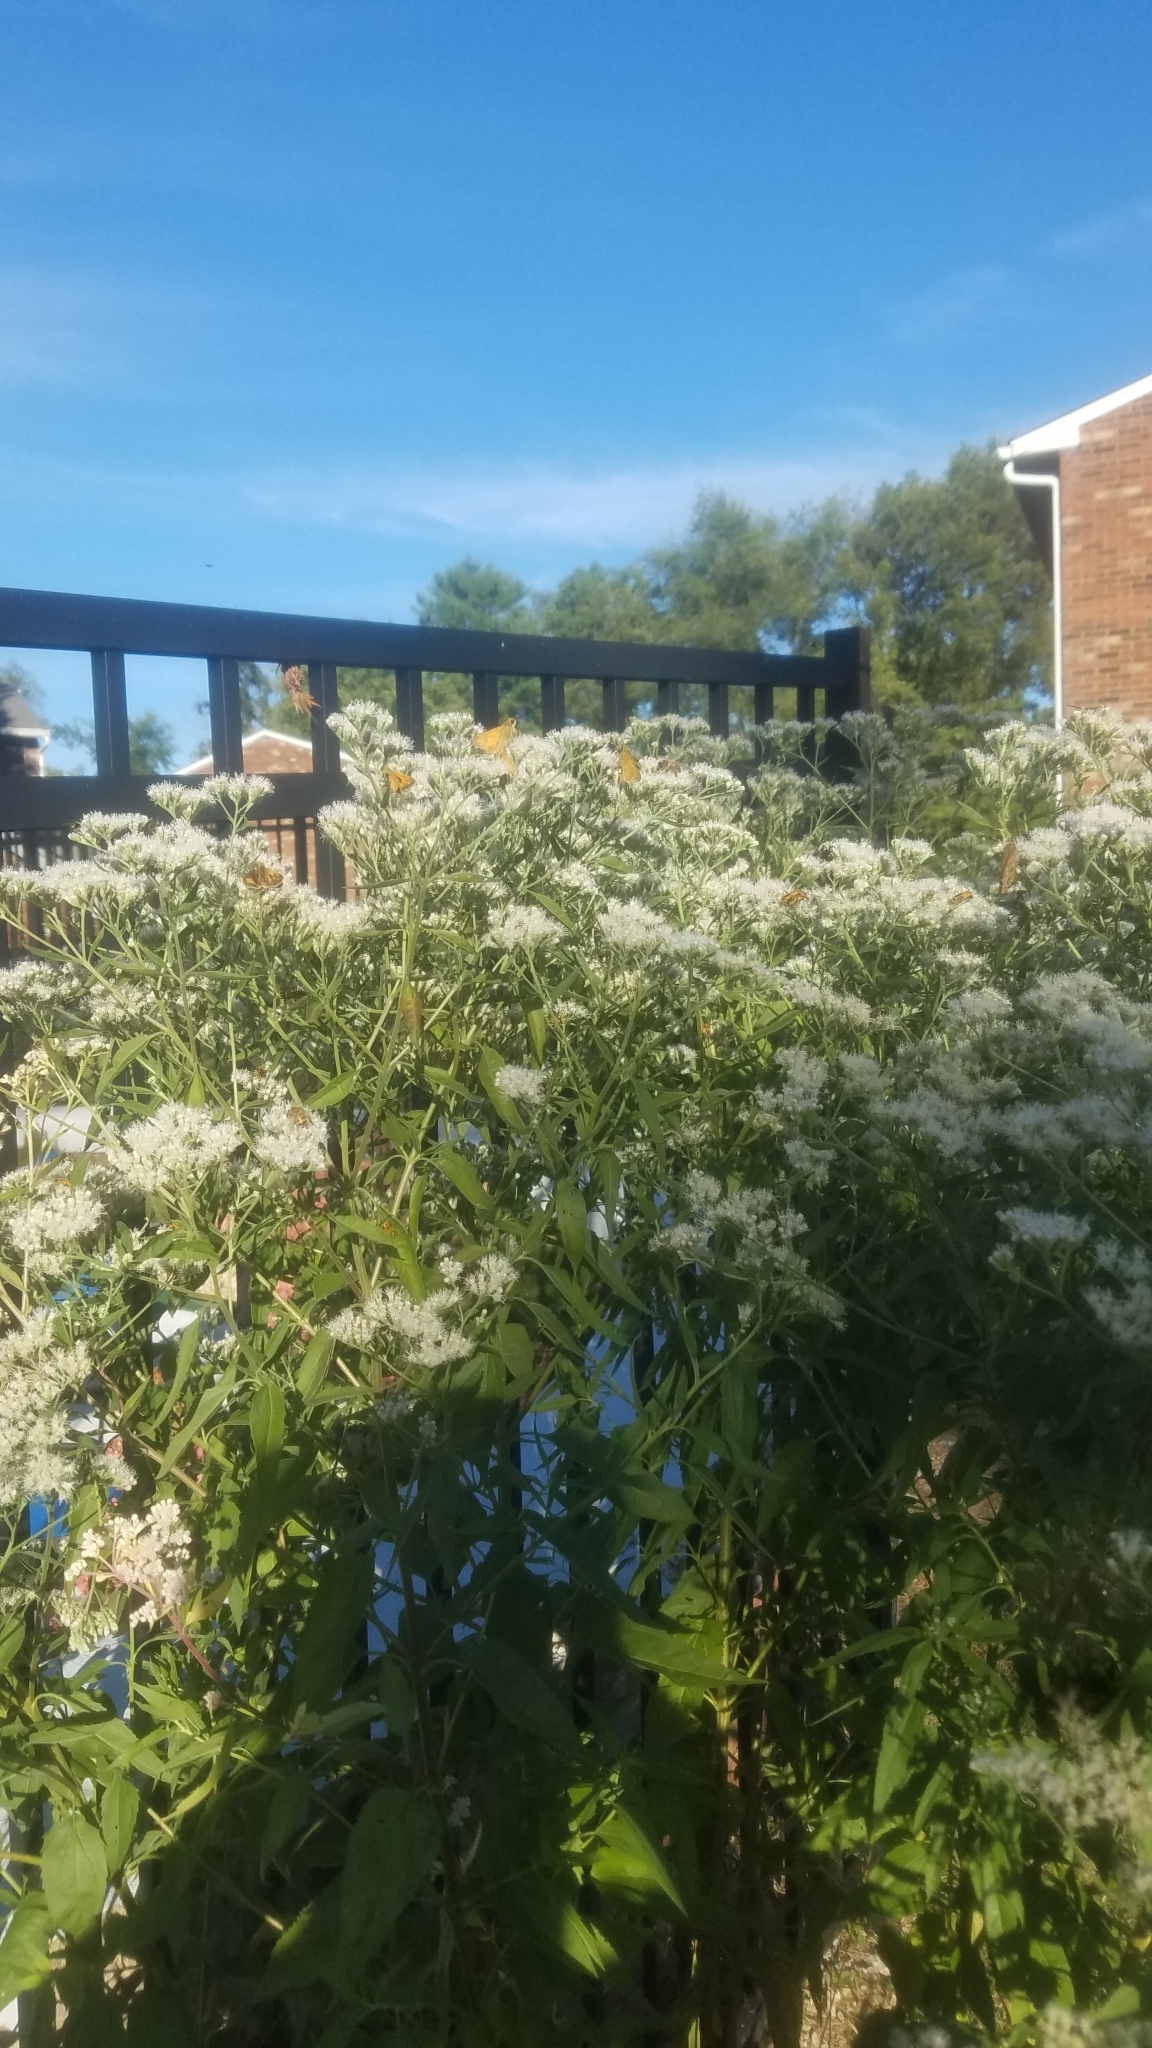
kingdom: Plantae
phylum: Tracheophyta
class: Magnoliopsida
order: Asterales
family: Asteraceae
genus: Eupatorium
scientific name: Eupatorium serotinum
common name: Late boneset
